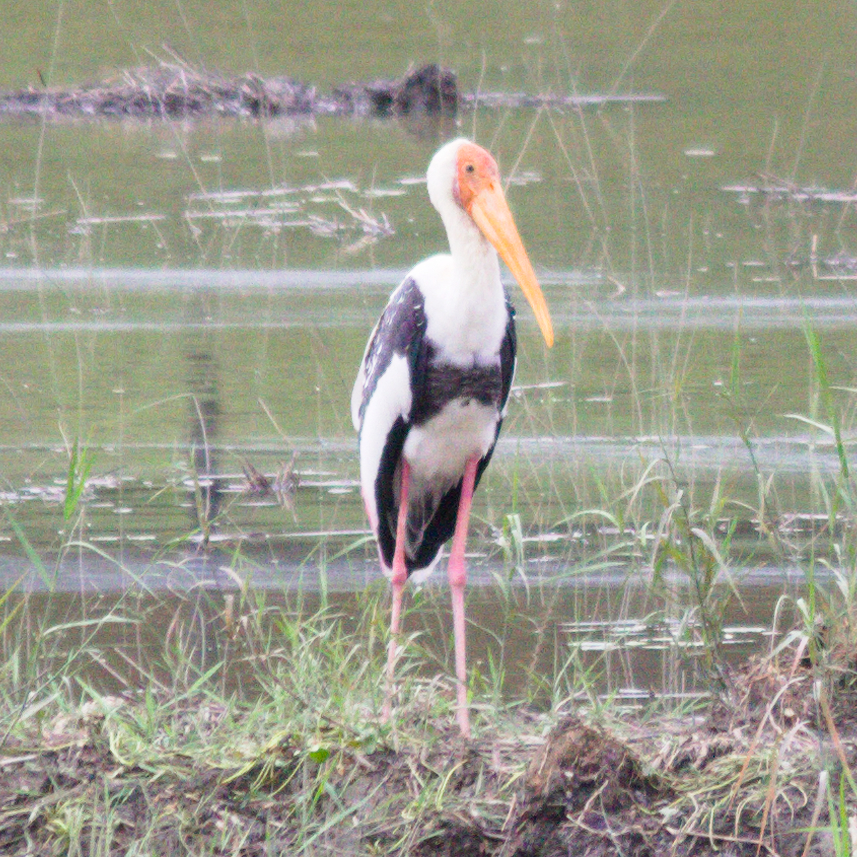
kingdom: Animalia
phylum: Chordata
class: Aves
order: Ciconiiformes
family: Ciconiidae
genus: Mycteria
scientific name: Mycteria leucocephala
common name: Painted stork
